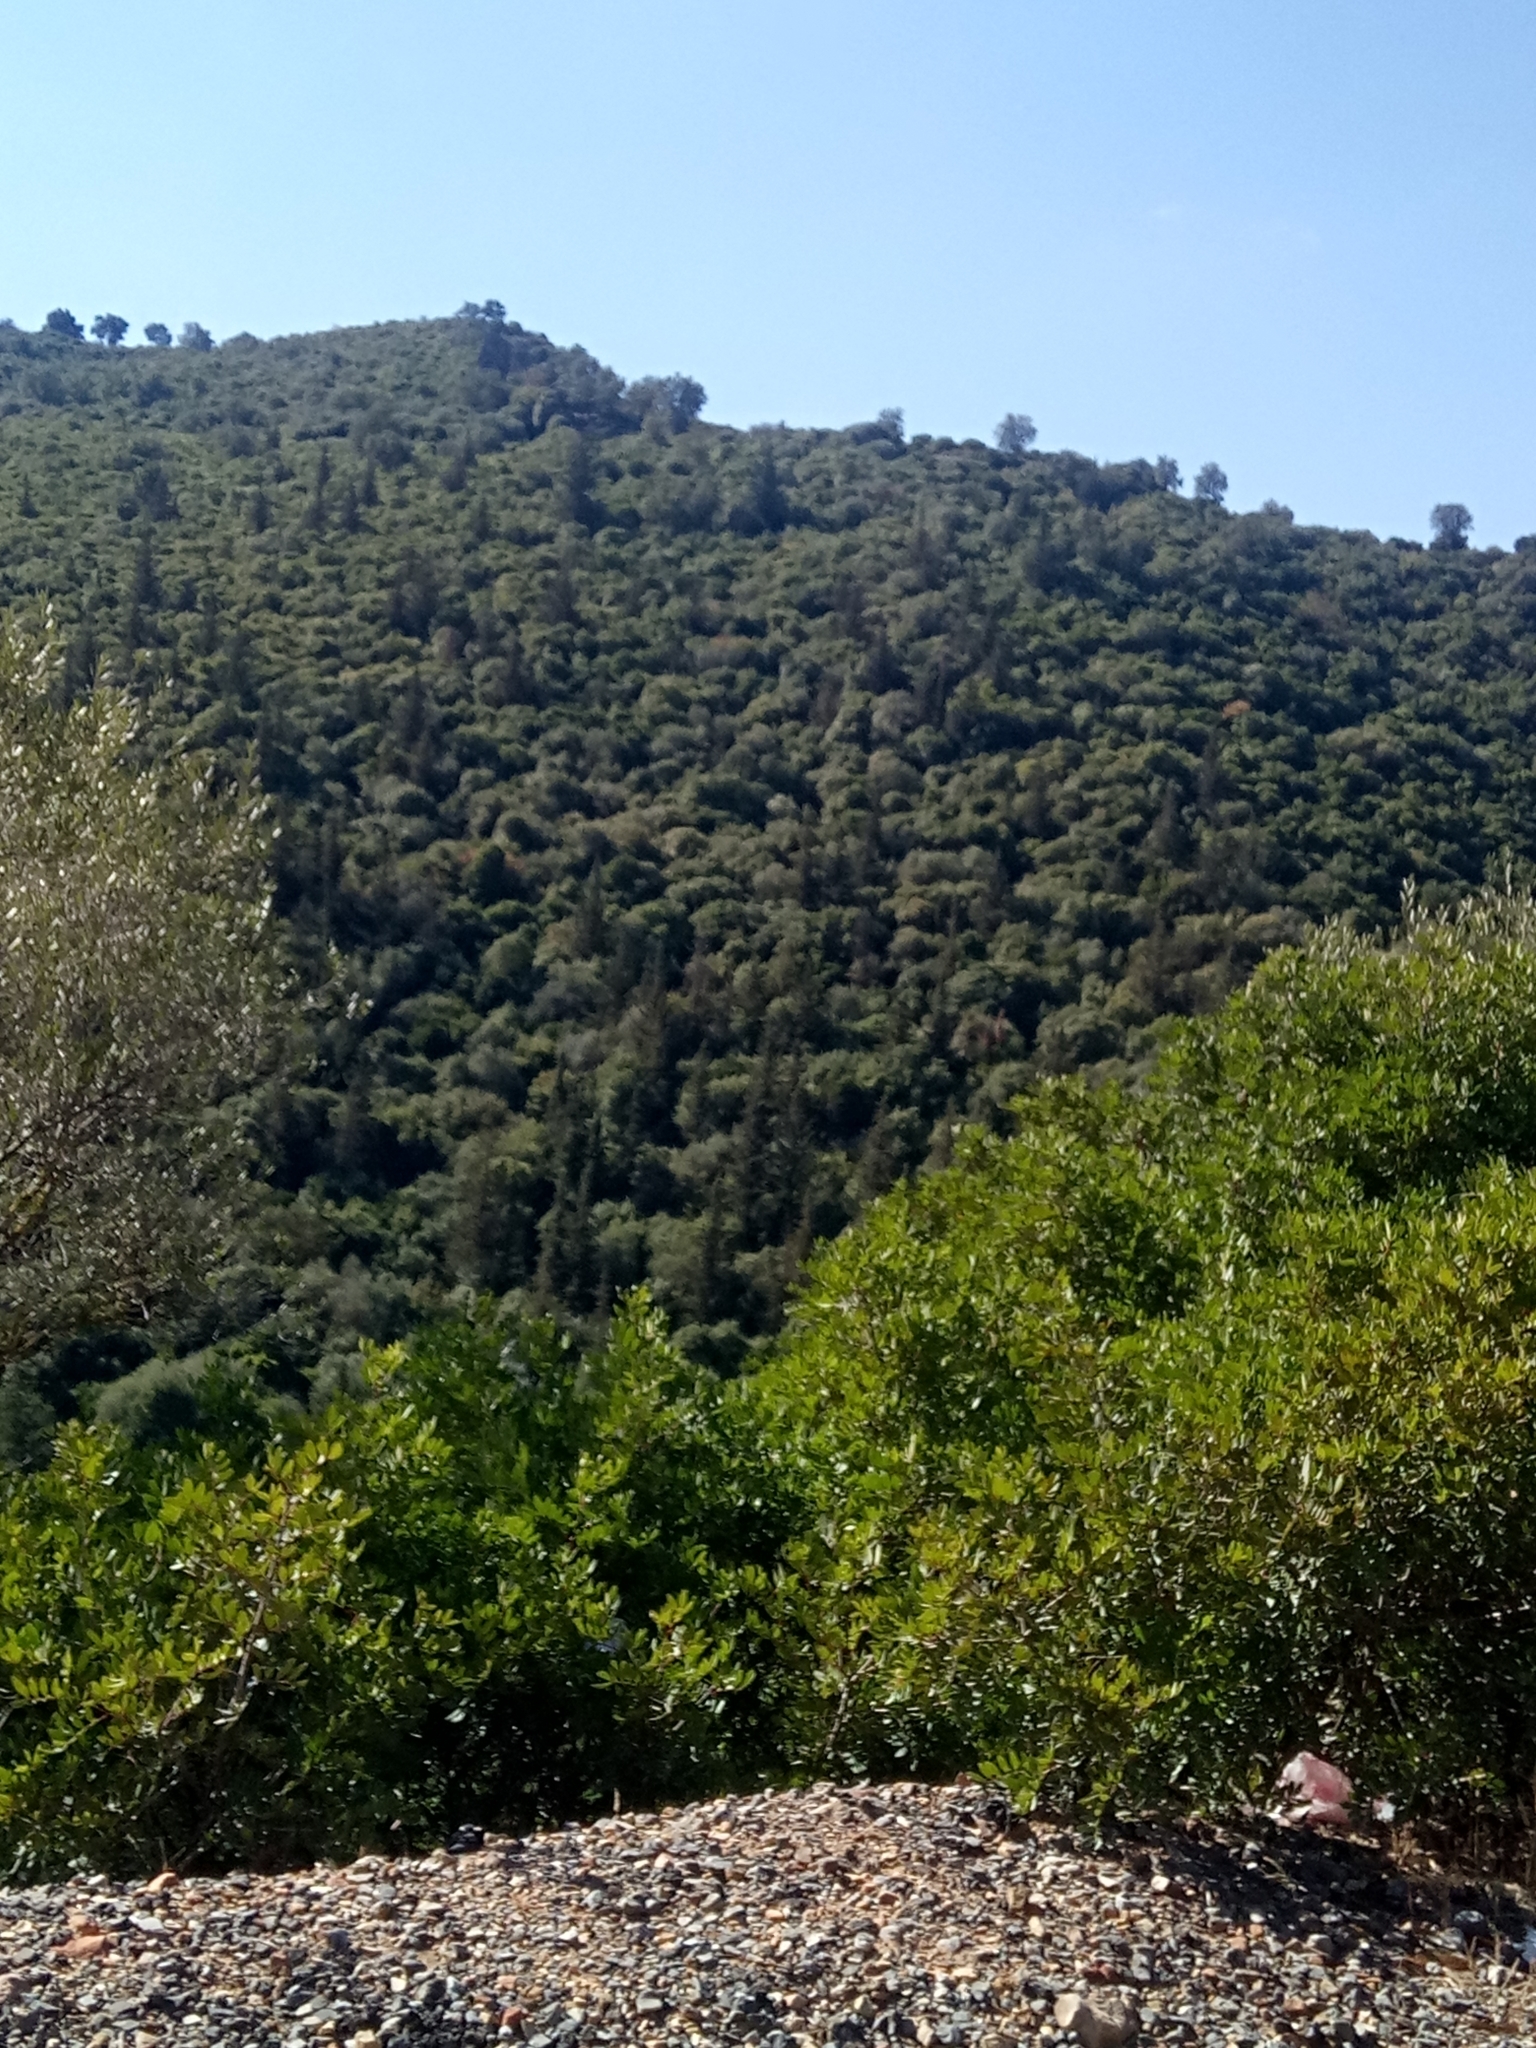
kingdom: Plantae
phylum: Tracheophyta
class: Magnoliopsida
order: Sapindales
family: Anacardiaceae
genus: Pistacia
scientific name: Pistacia lentiscus
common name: Lentisk
